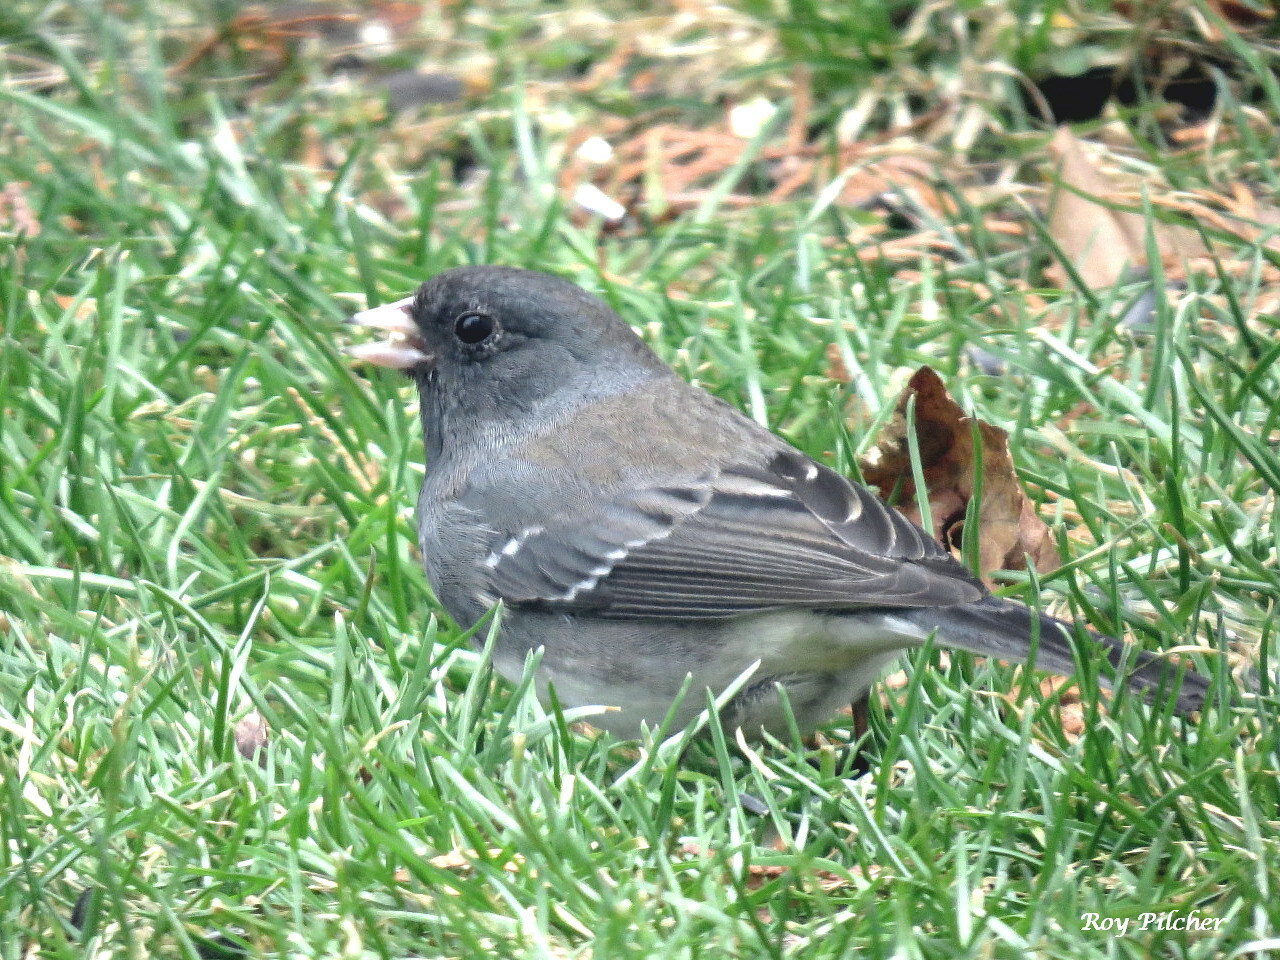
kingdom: Animalia
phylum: Chordata
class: Aves
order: Passeriformes
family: Passerellidae
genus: Junco
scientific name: Junco hyemalis
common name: Dark-eyed junco
